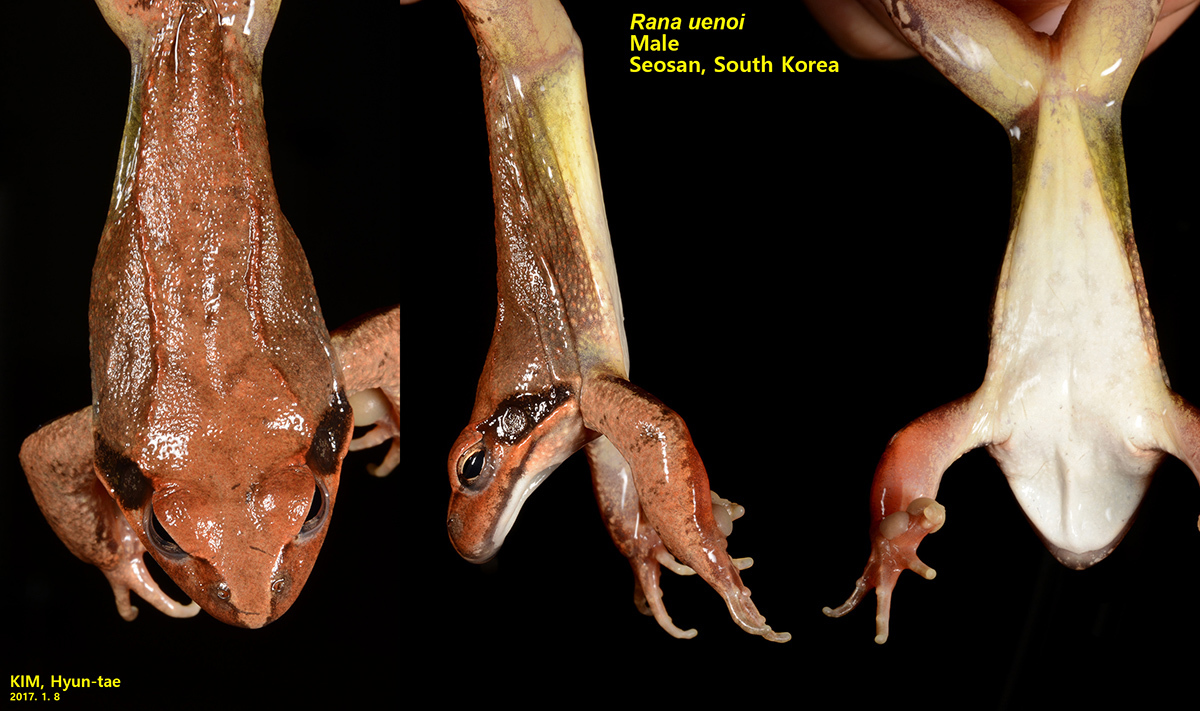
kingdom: Animalia
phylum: Chordata
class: Amphibia
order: Anura
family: Ranidae
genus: Rana
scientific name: Rana uenoi
